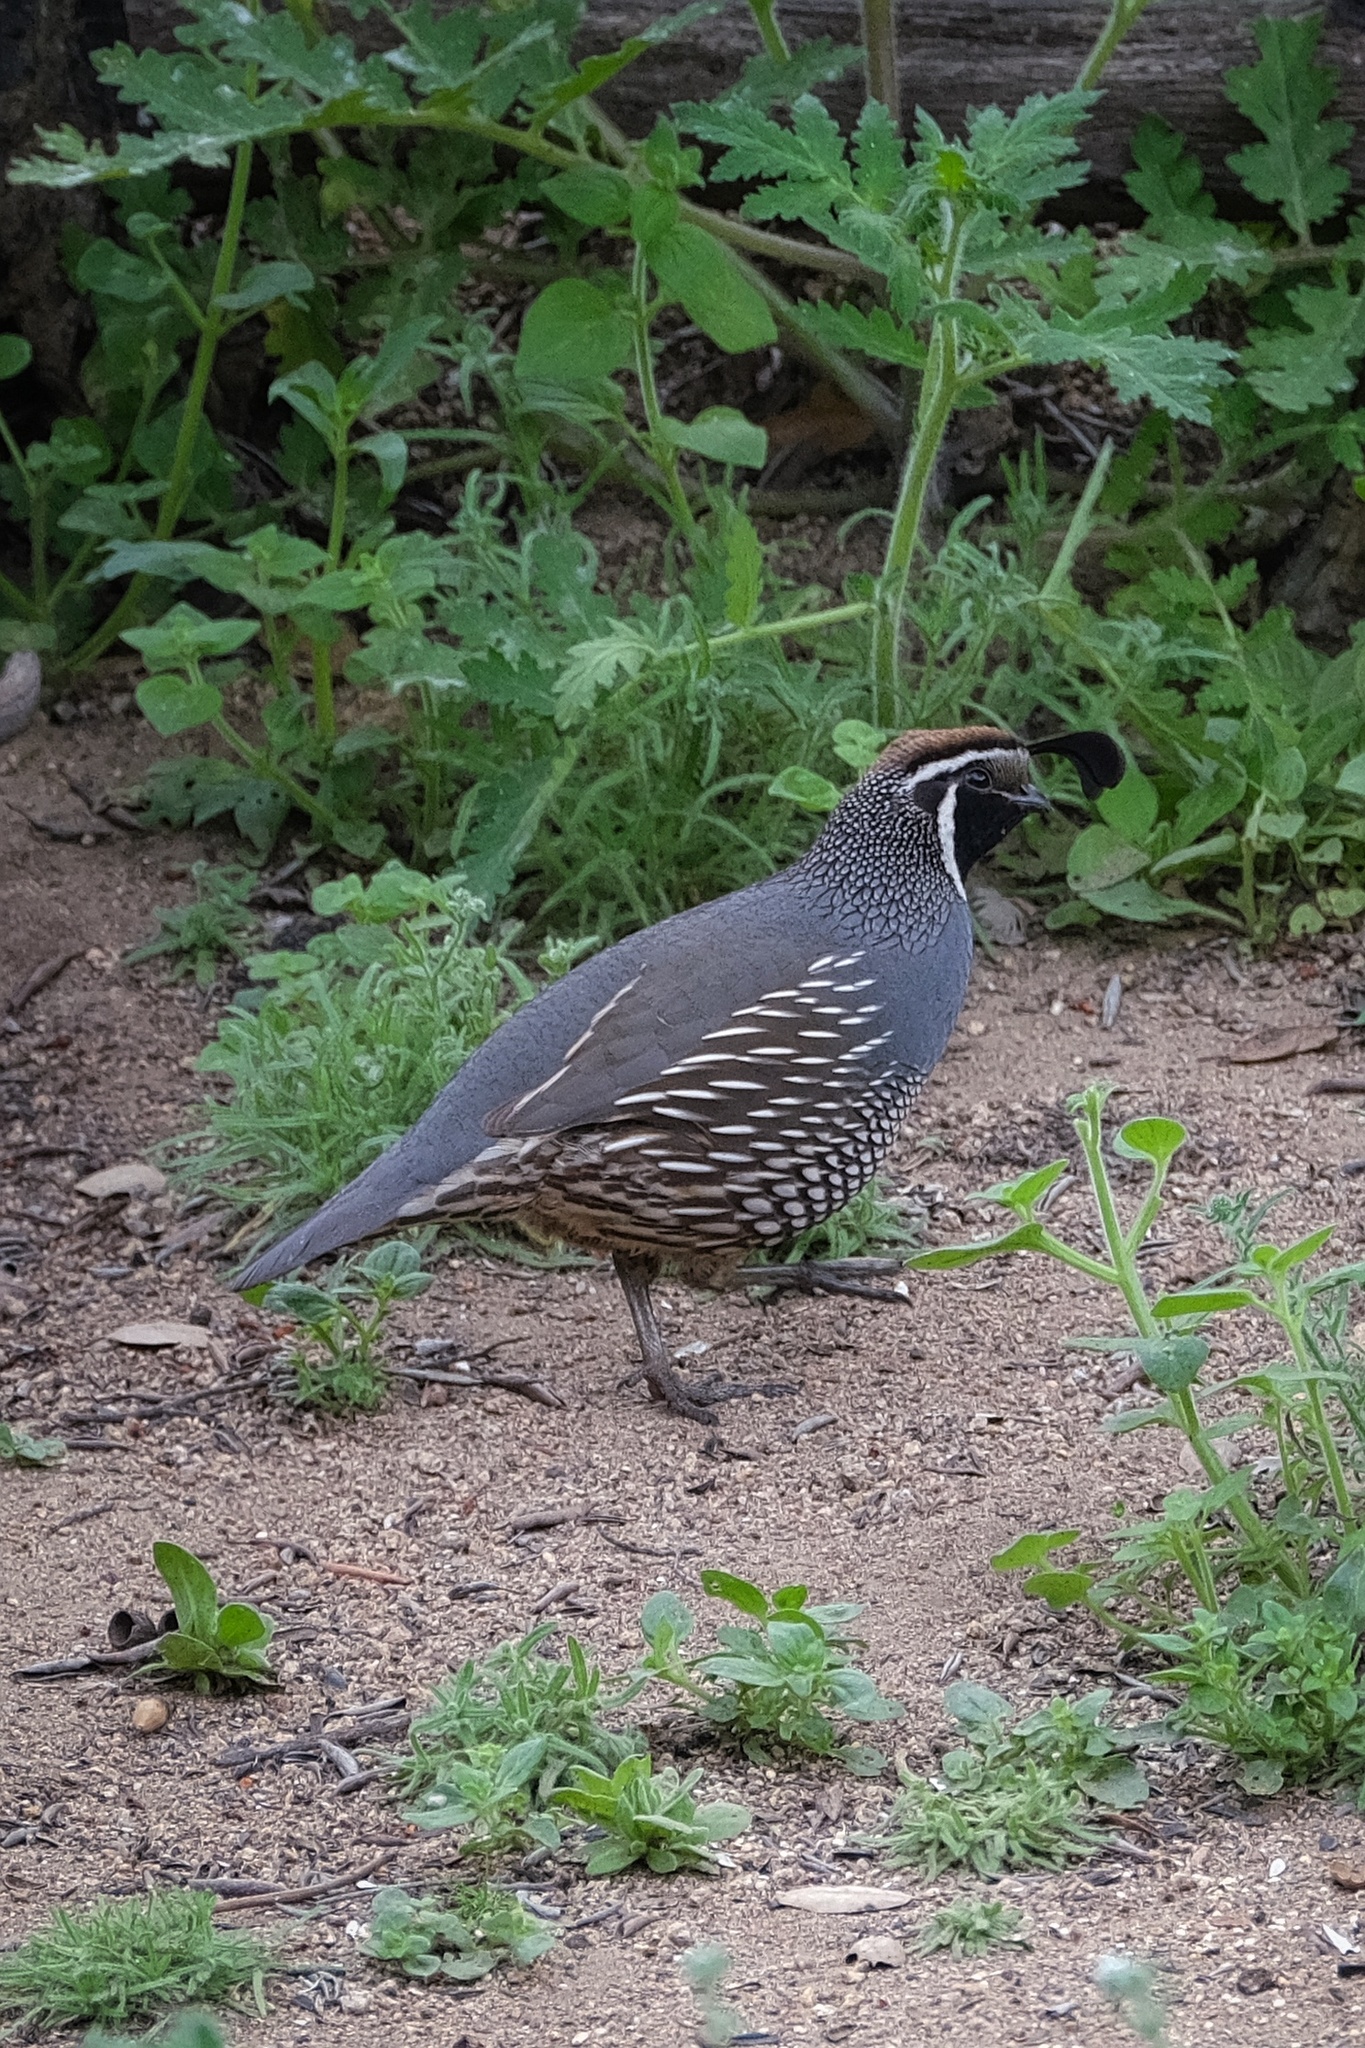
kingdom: Animalia
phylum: Chordata
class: Aves
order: Galliformes
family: Odontophoridae
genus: Callipepla
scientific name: Callipepla californica
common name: California quail
